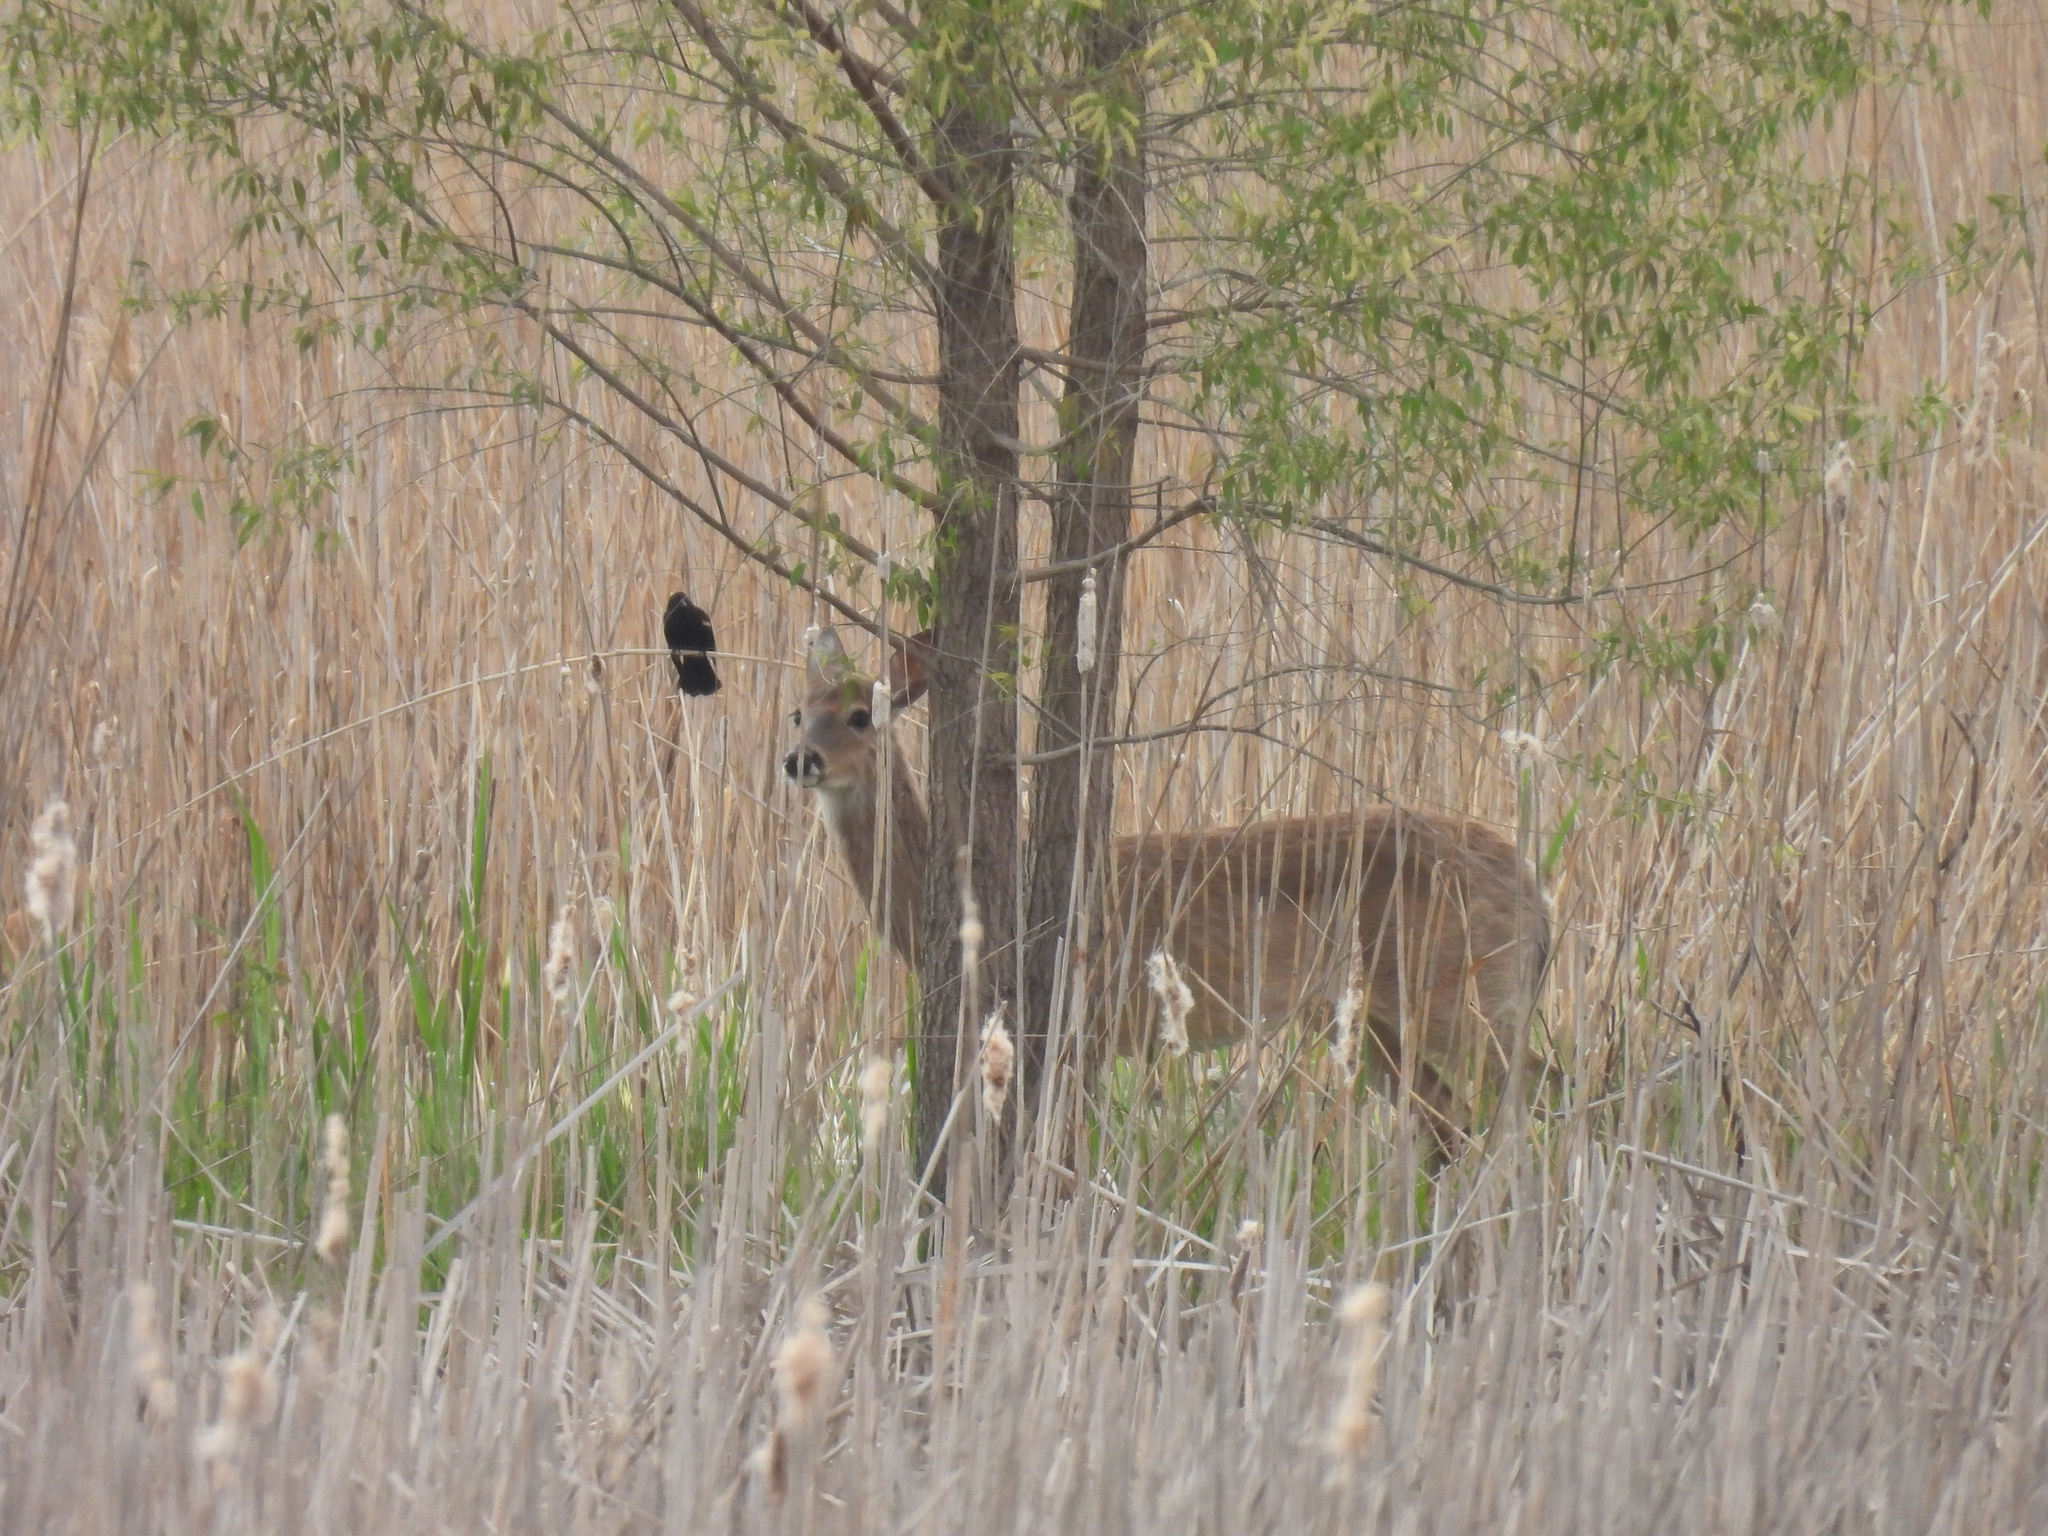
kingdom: Animalia
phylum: Chordata
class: Mammalia
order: Artiodactyla
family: Cervidae
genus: Odocoileus
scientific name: Odocoileus virginianus
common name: White-tailed deer
